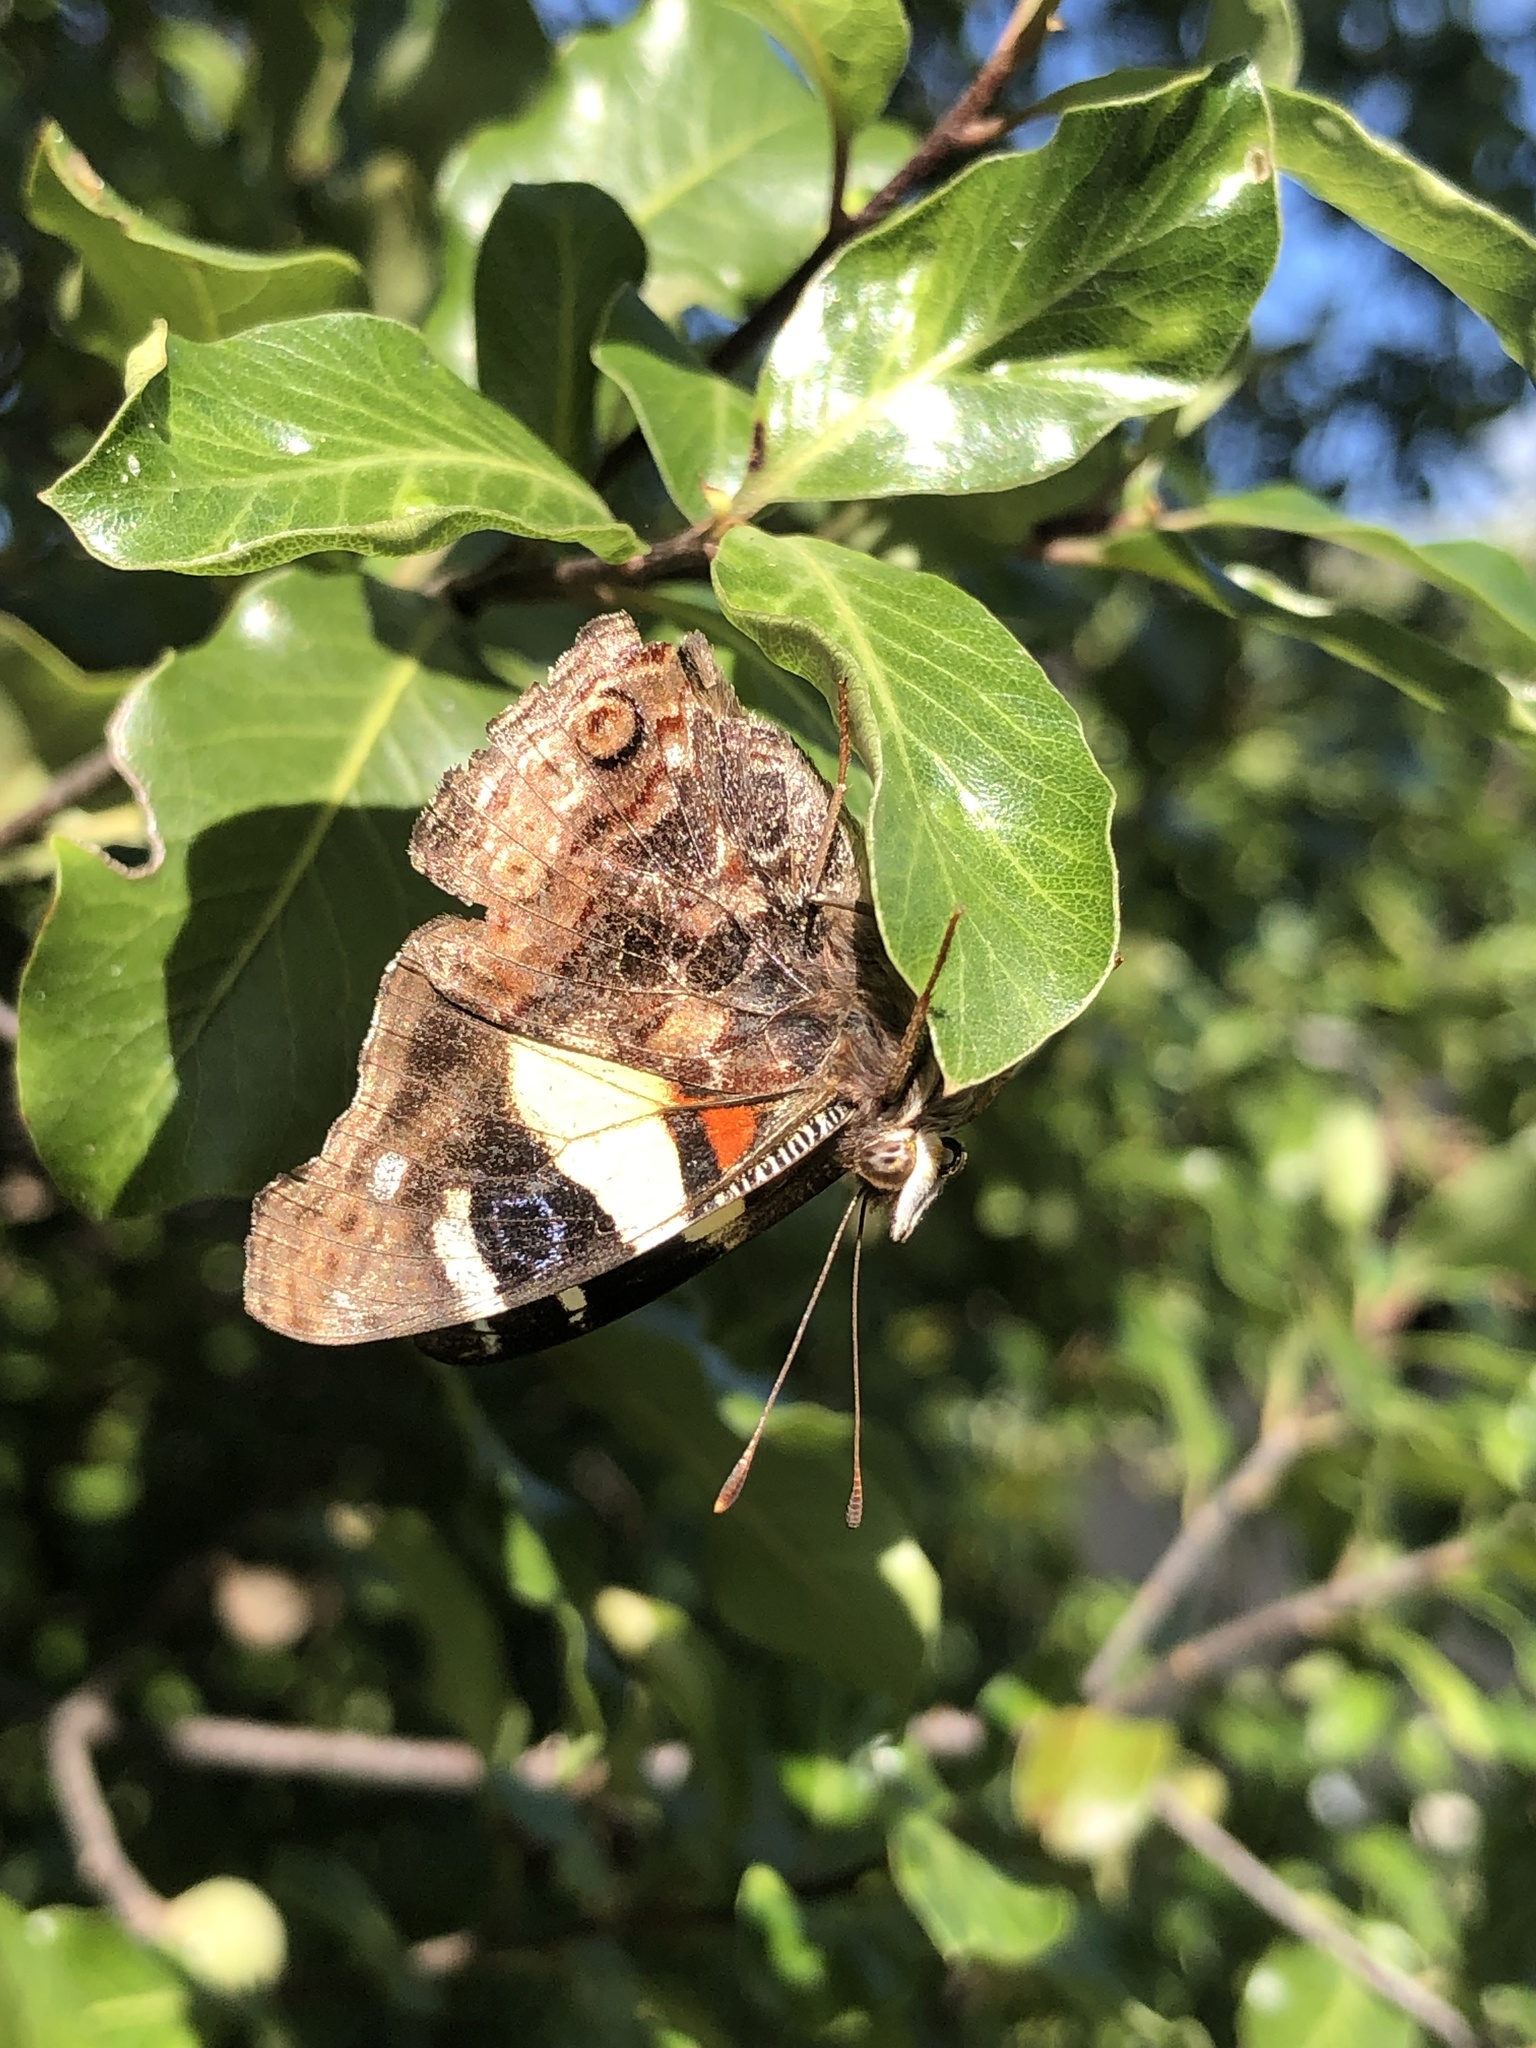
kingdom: Animalia
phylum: Arthropoda
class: Insecta
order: Lepidoptera
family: Nymphalidae
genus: Vanessa
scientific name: Vanessa itea
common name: Yellow admiral
